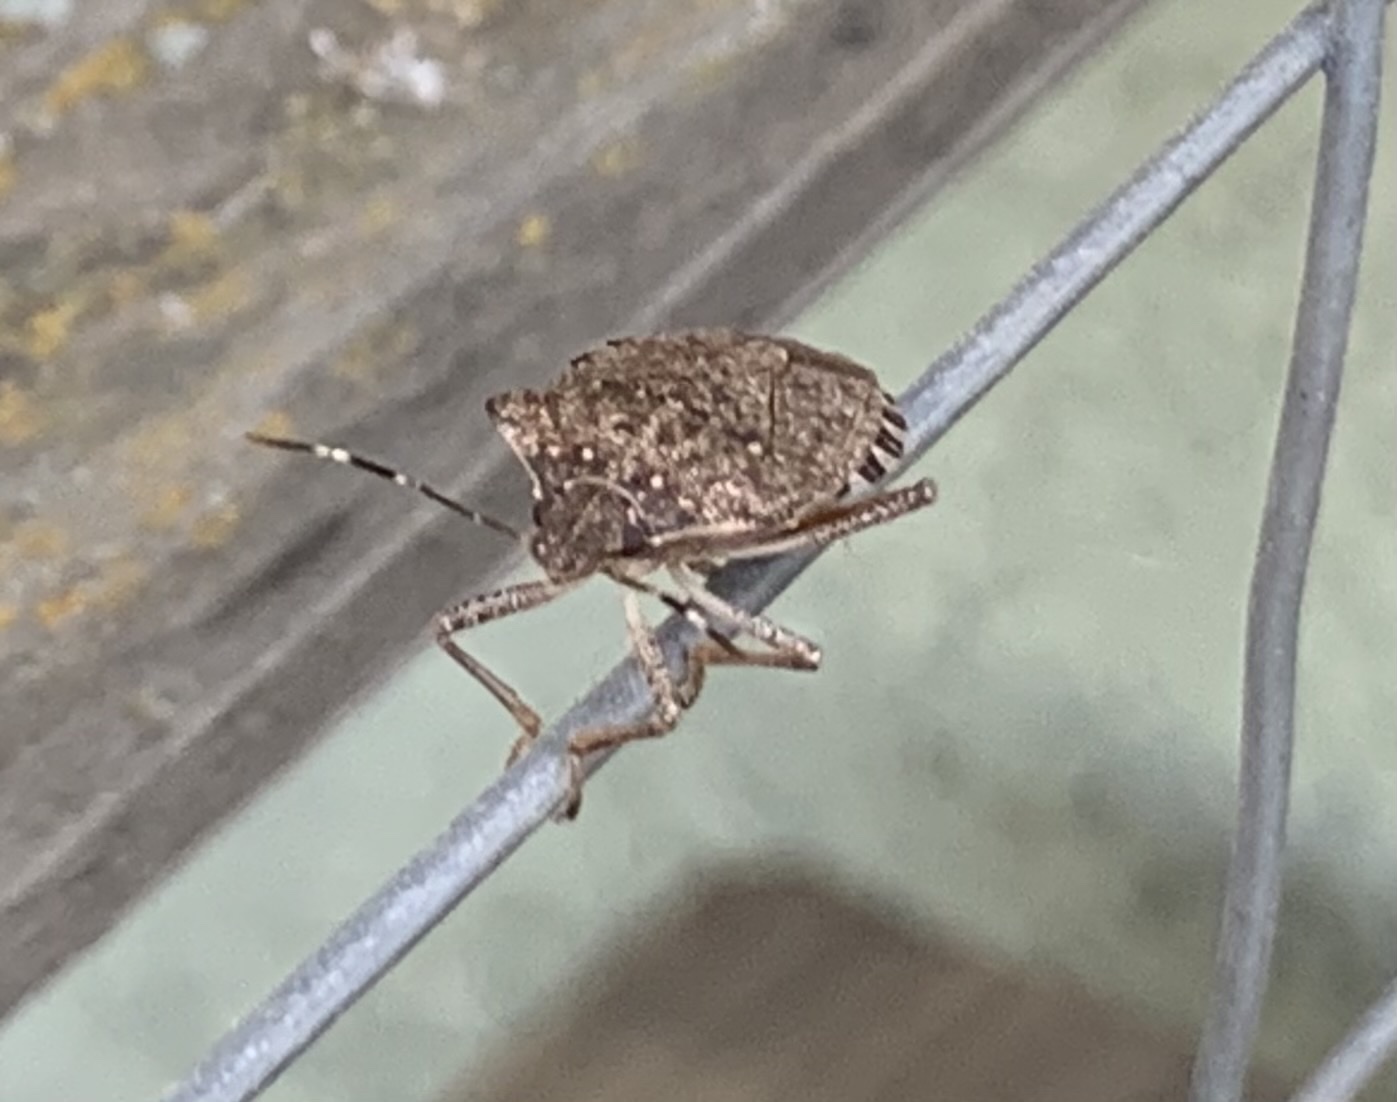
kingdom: Animalia
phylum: Arthropoda
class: Insecta
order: Hemiptera
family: Pentatomidae
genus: Halyomorpha
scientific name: Halyomorpha halys
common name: Brown marmorated stink bug
